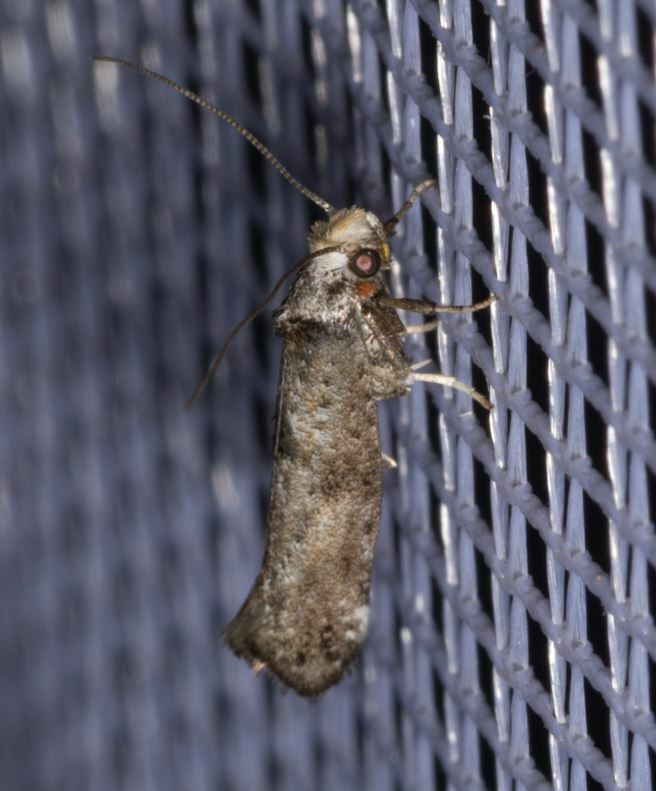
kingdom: Animalia
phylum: Arthropoda
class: Insecta
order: Lepidoptera
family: Yponomeutidae
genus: Paraswammerdamia
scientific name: Paraswammerdamia lutarea
